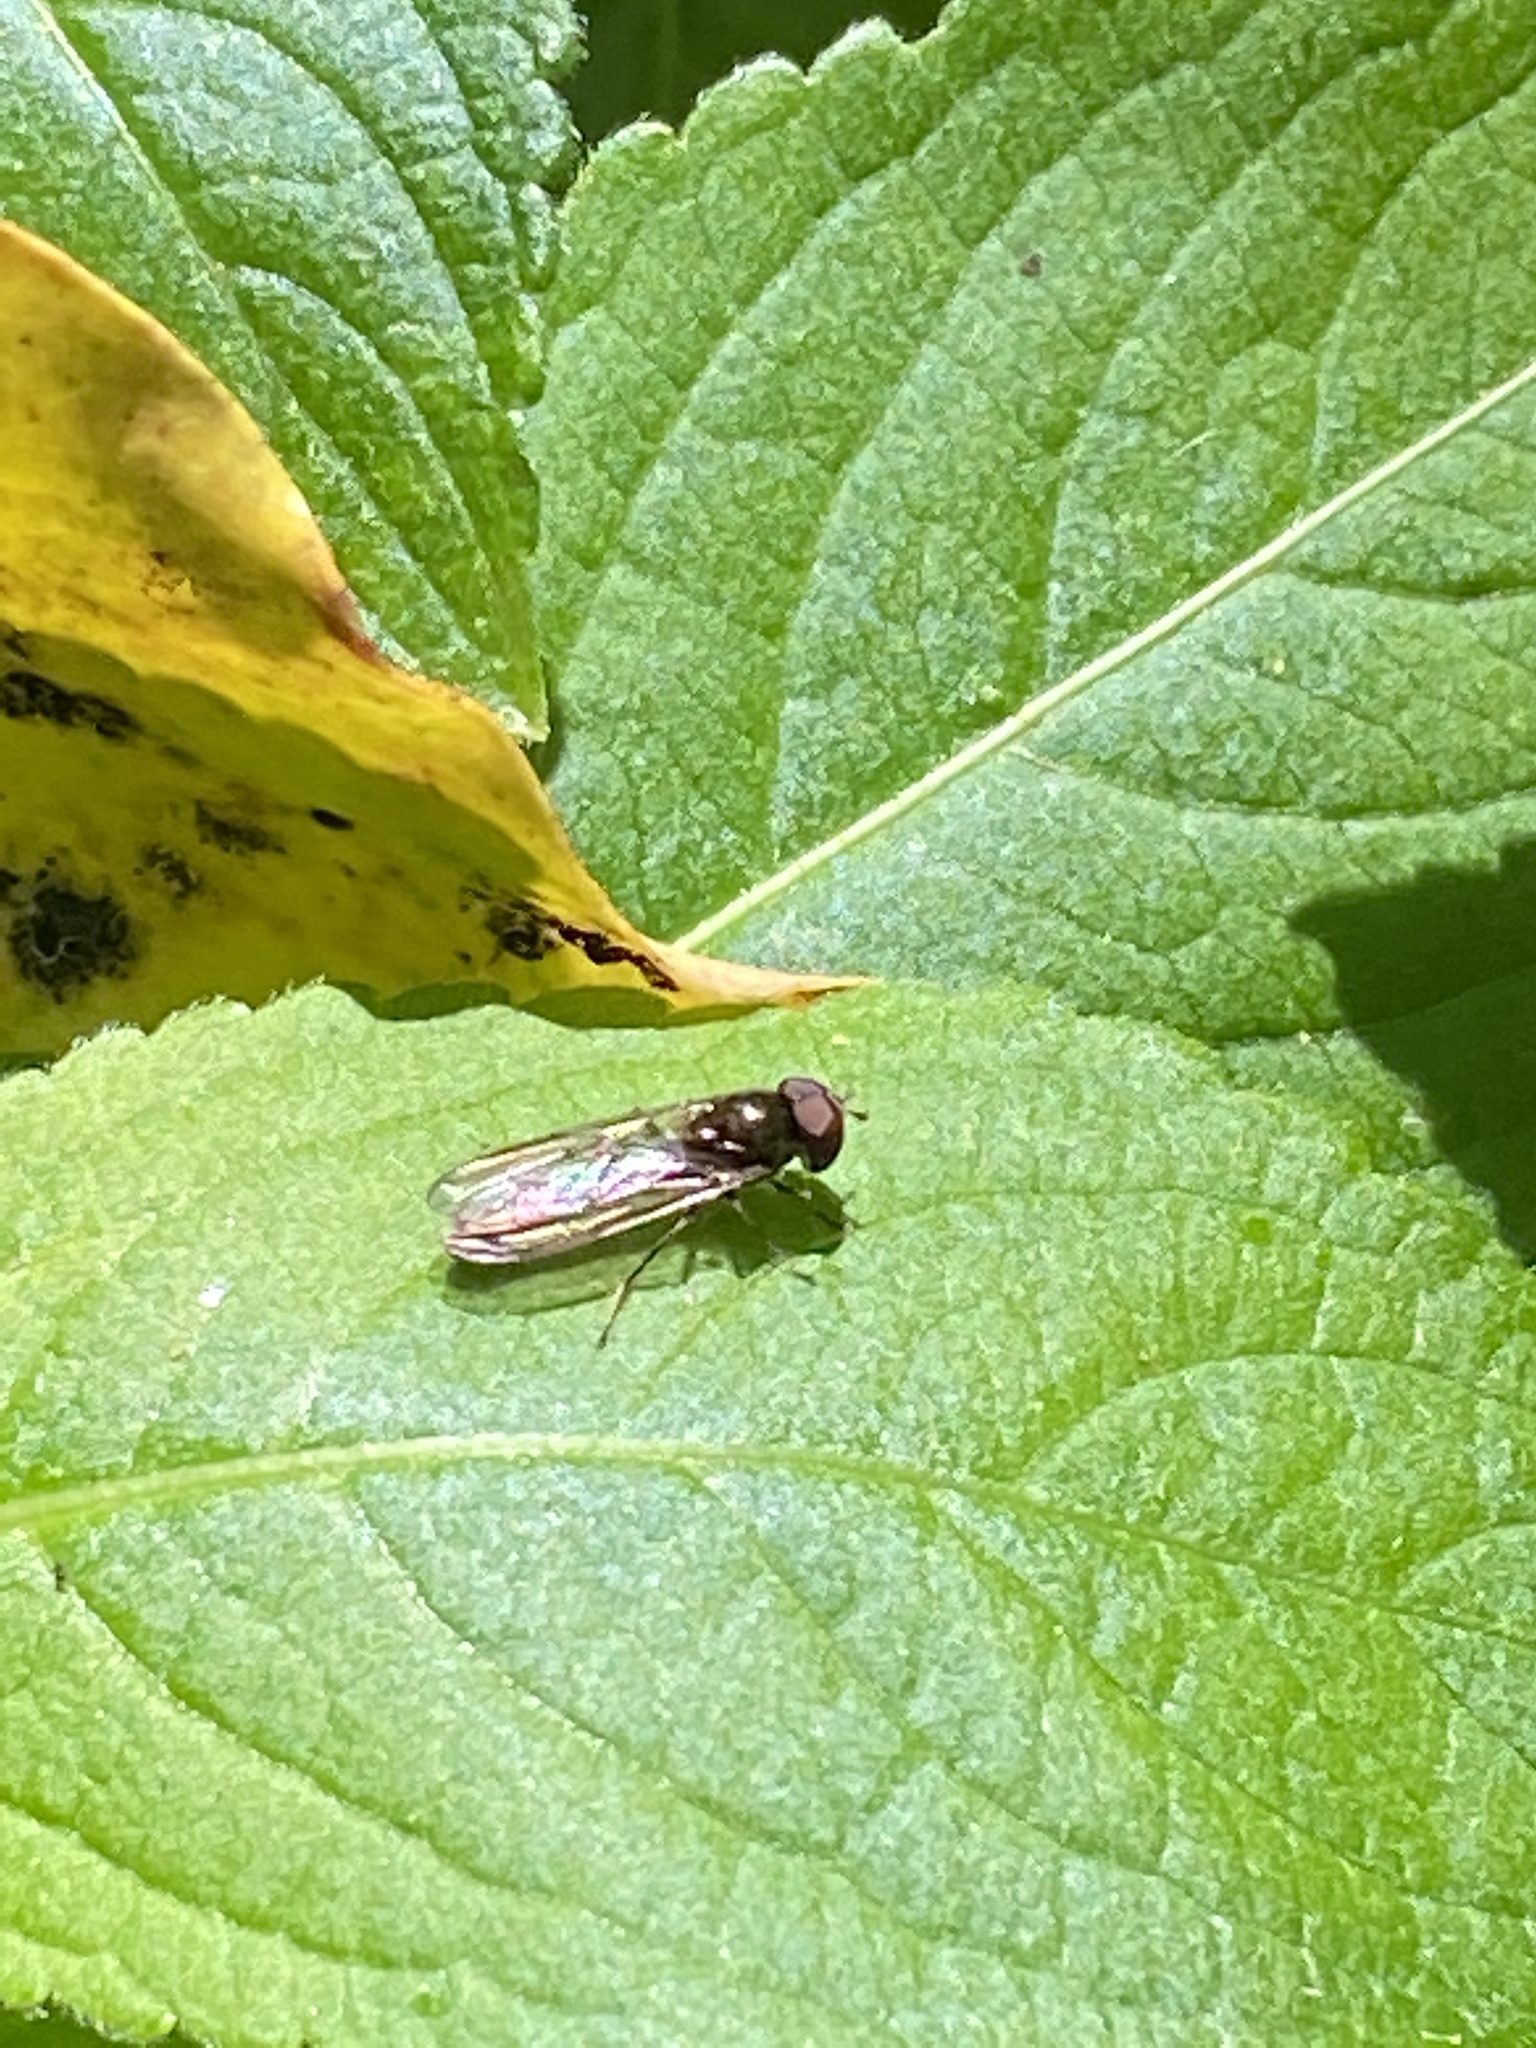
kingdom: Animalia
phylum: Arthropoda
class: Insecta
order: Diptera
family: Syrphidae
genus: Melanostoma
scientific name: Melanostoma scalare
